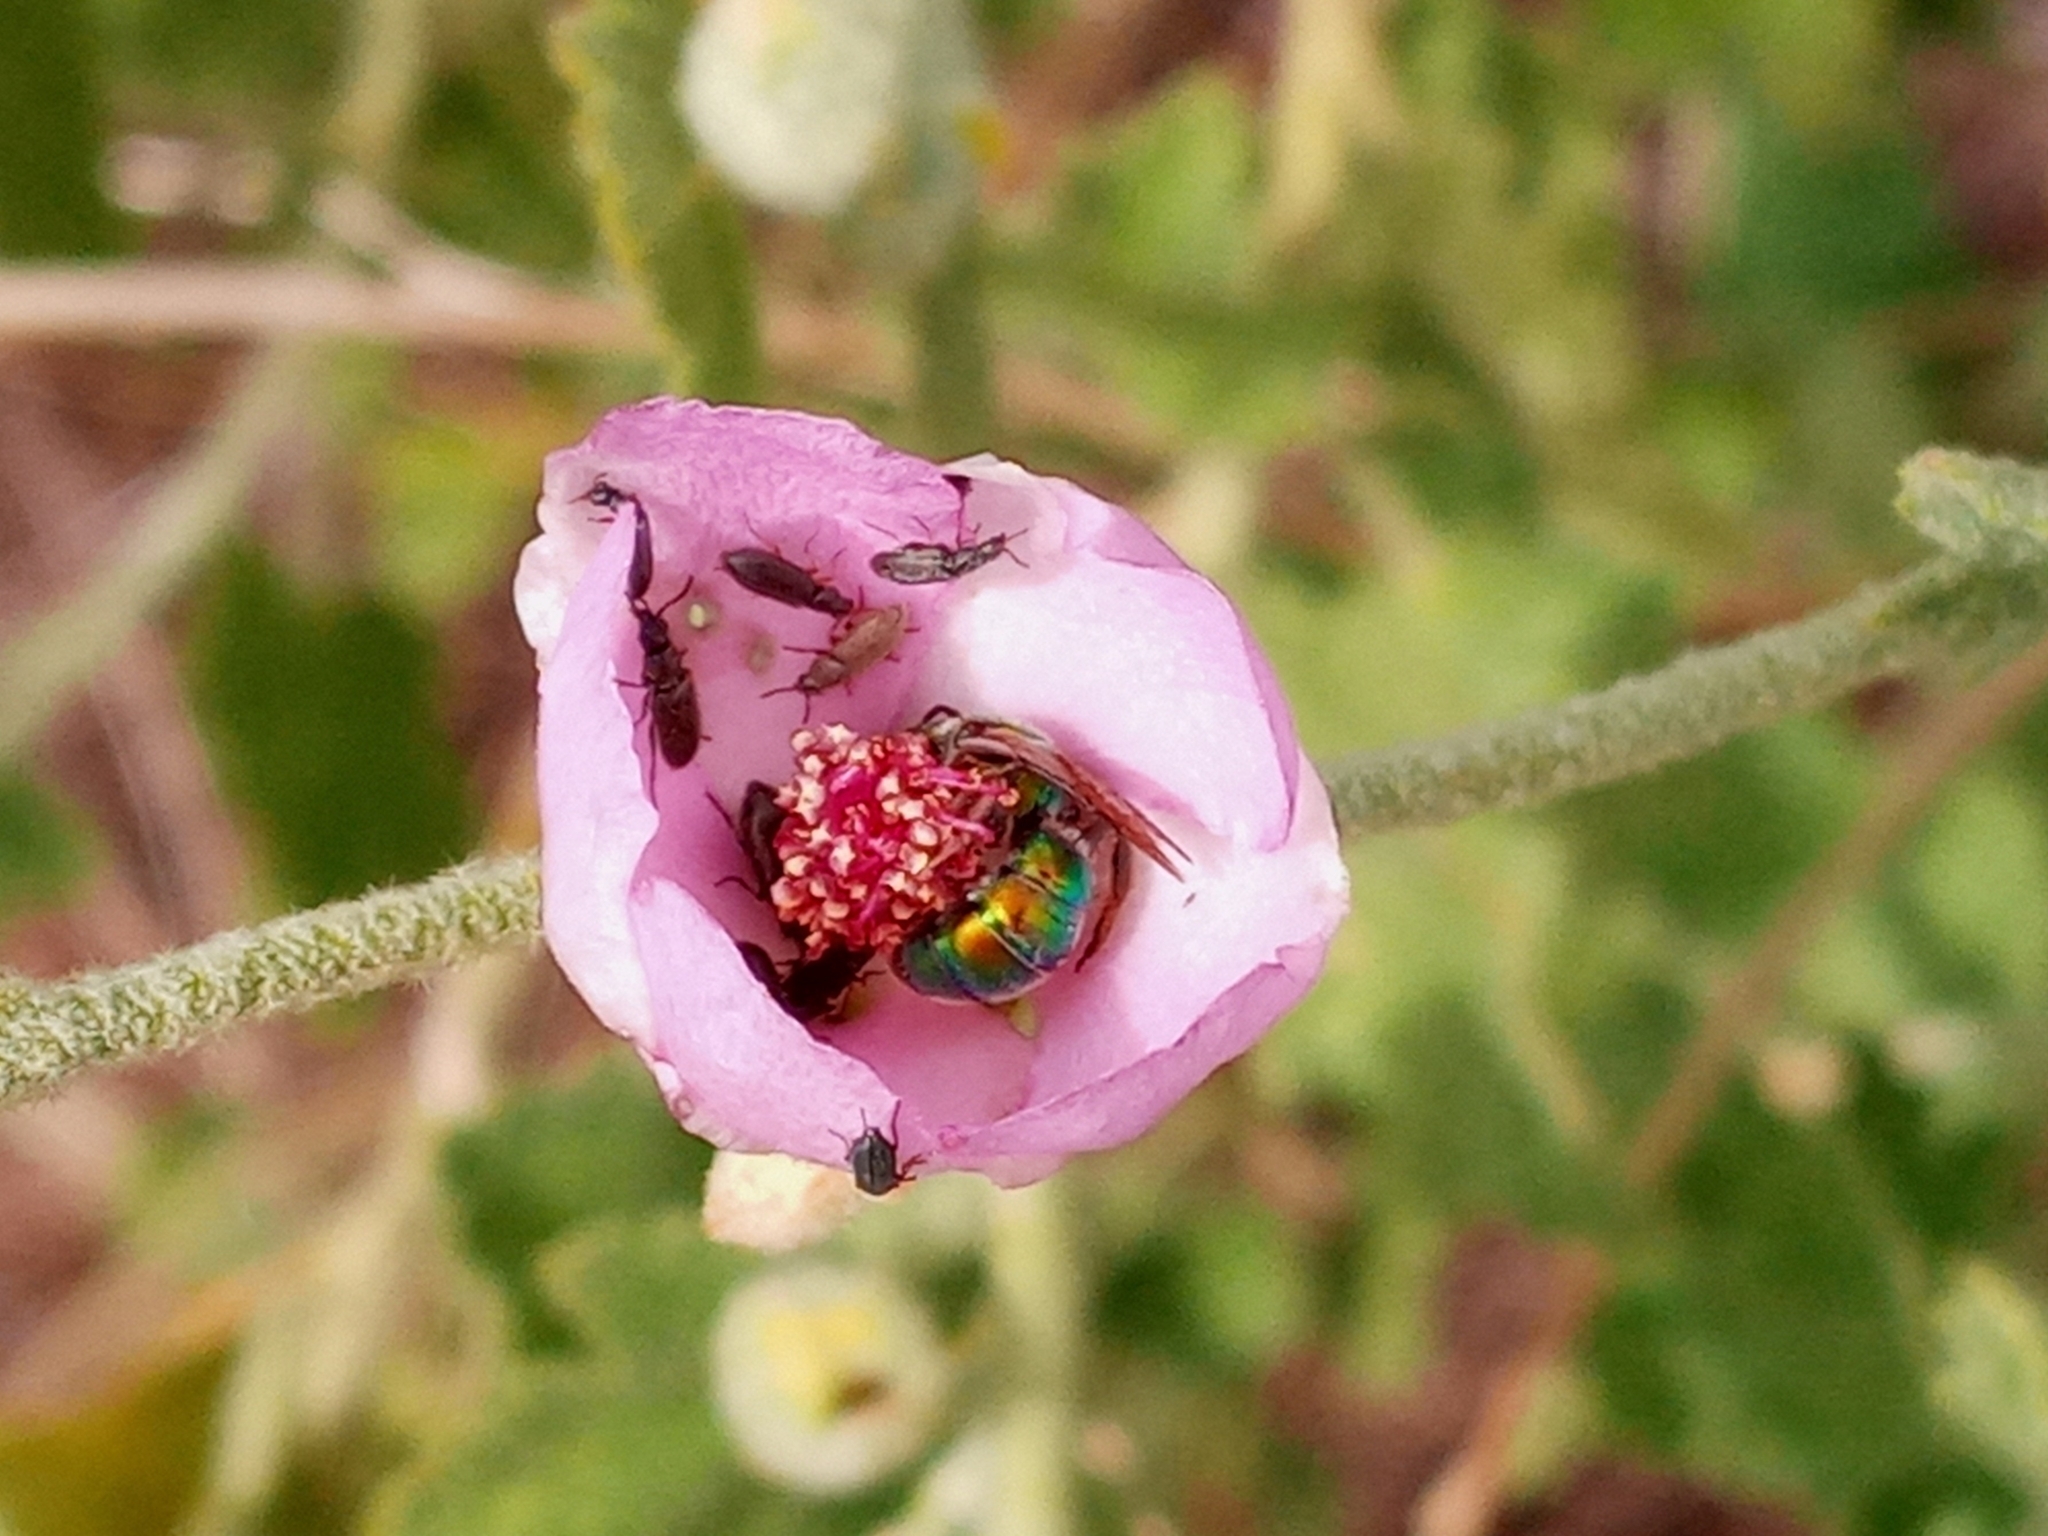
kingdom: Animalia
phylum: Arthropoda
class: Insecta
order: Hymenoptera
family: Halictidae
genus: Augochlorella
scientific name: Augochlorella pomoniella
